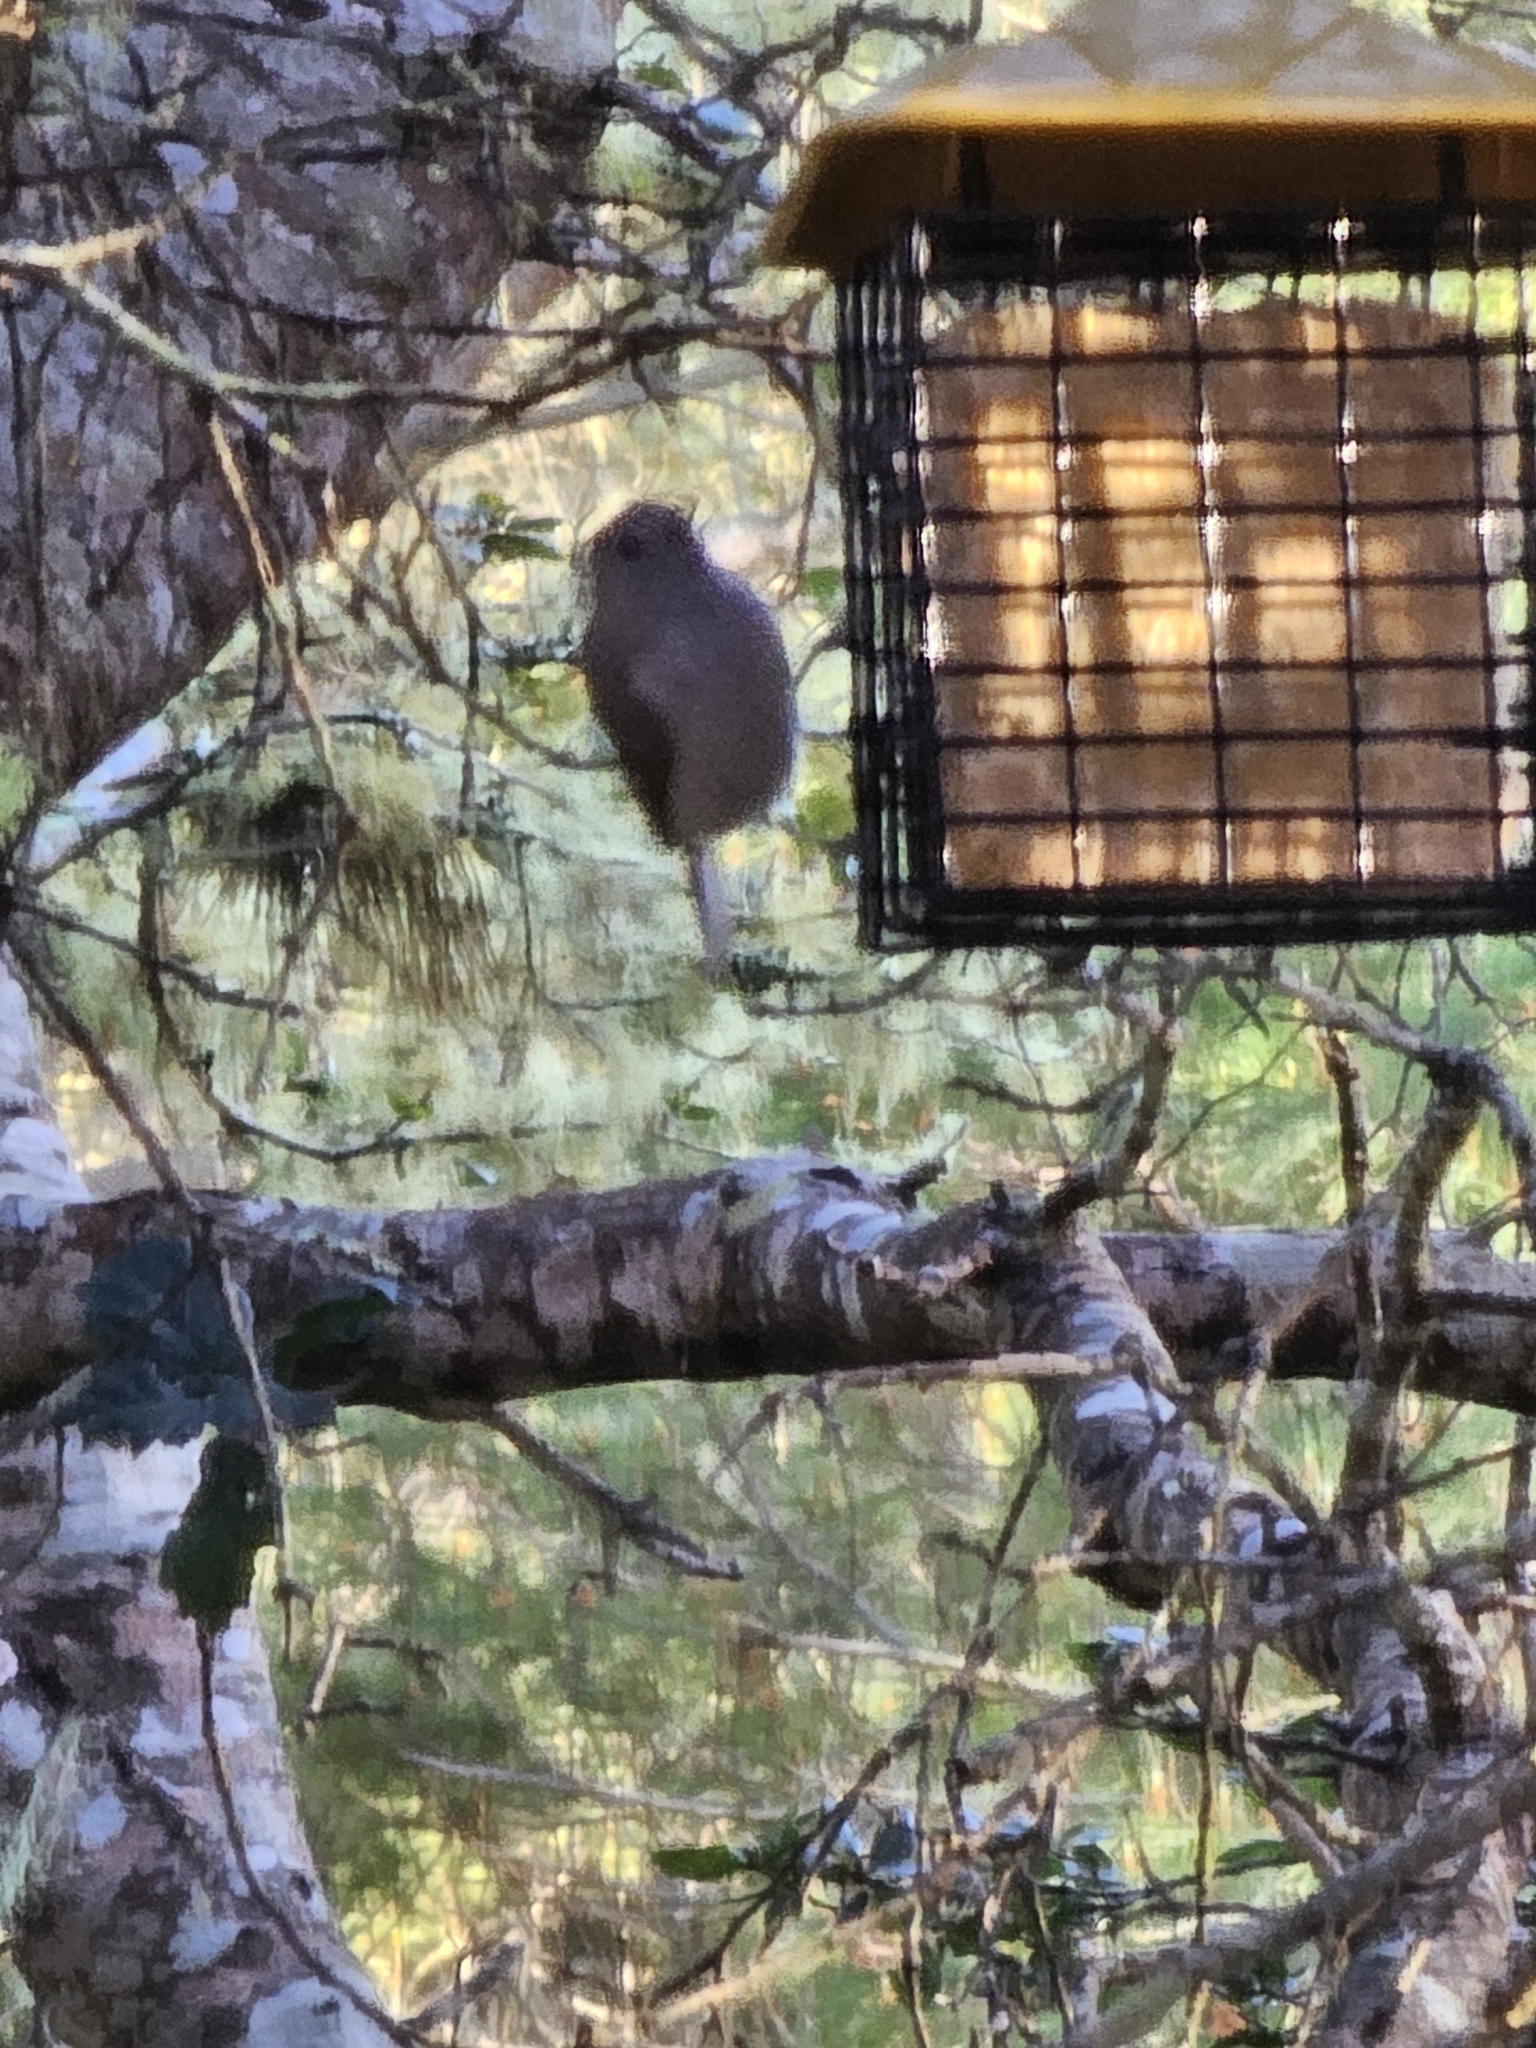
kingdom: Animalia
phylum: Chordata
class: Aves
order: Passeriformes
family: Paridae
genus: Baeolophus
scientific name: Baeolophus inornatus
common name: Oak titmouse
